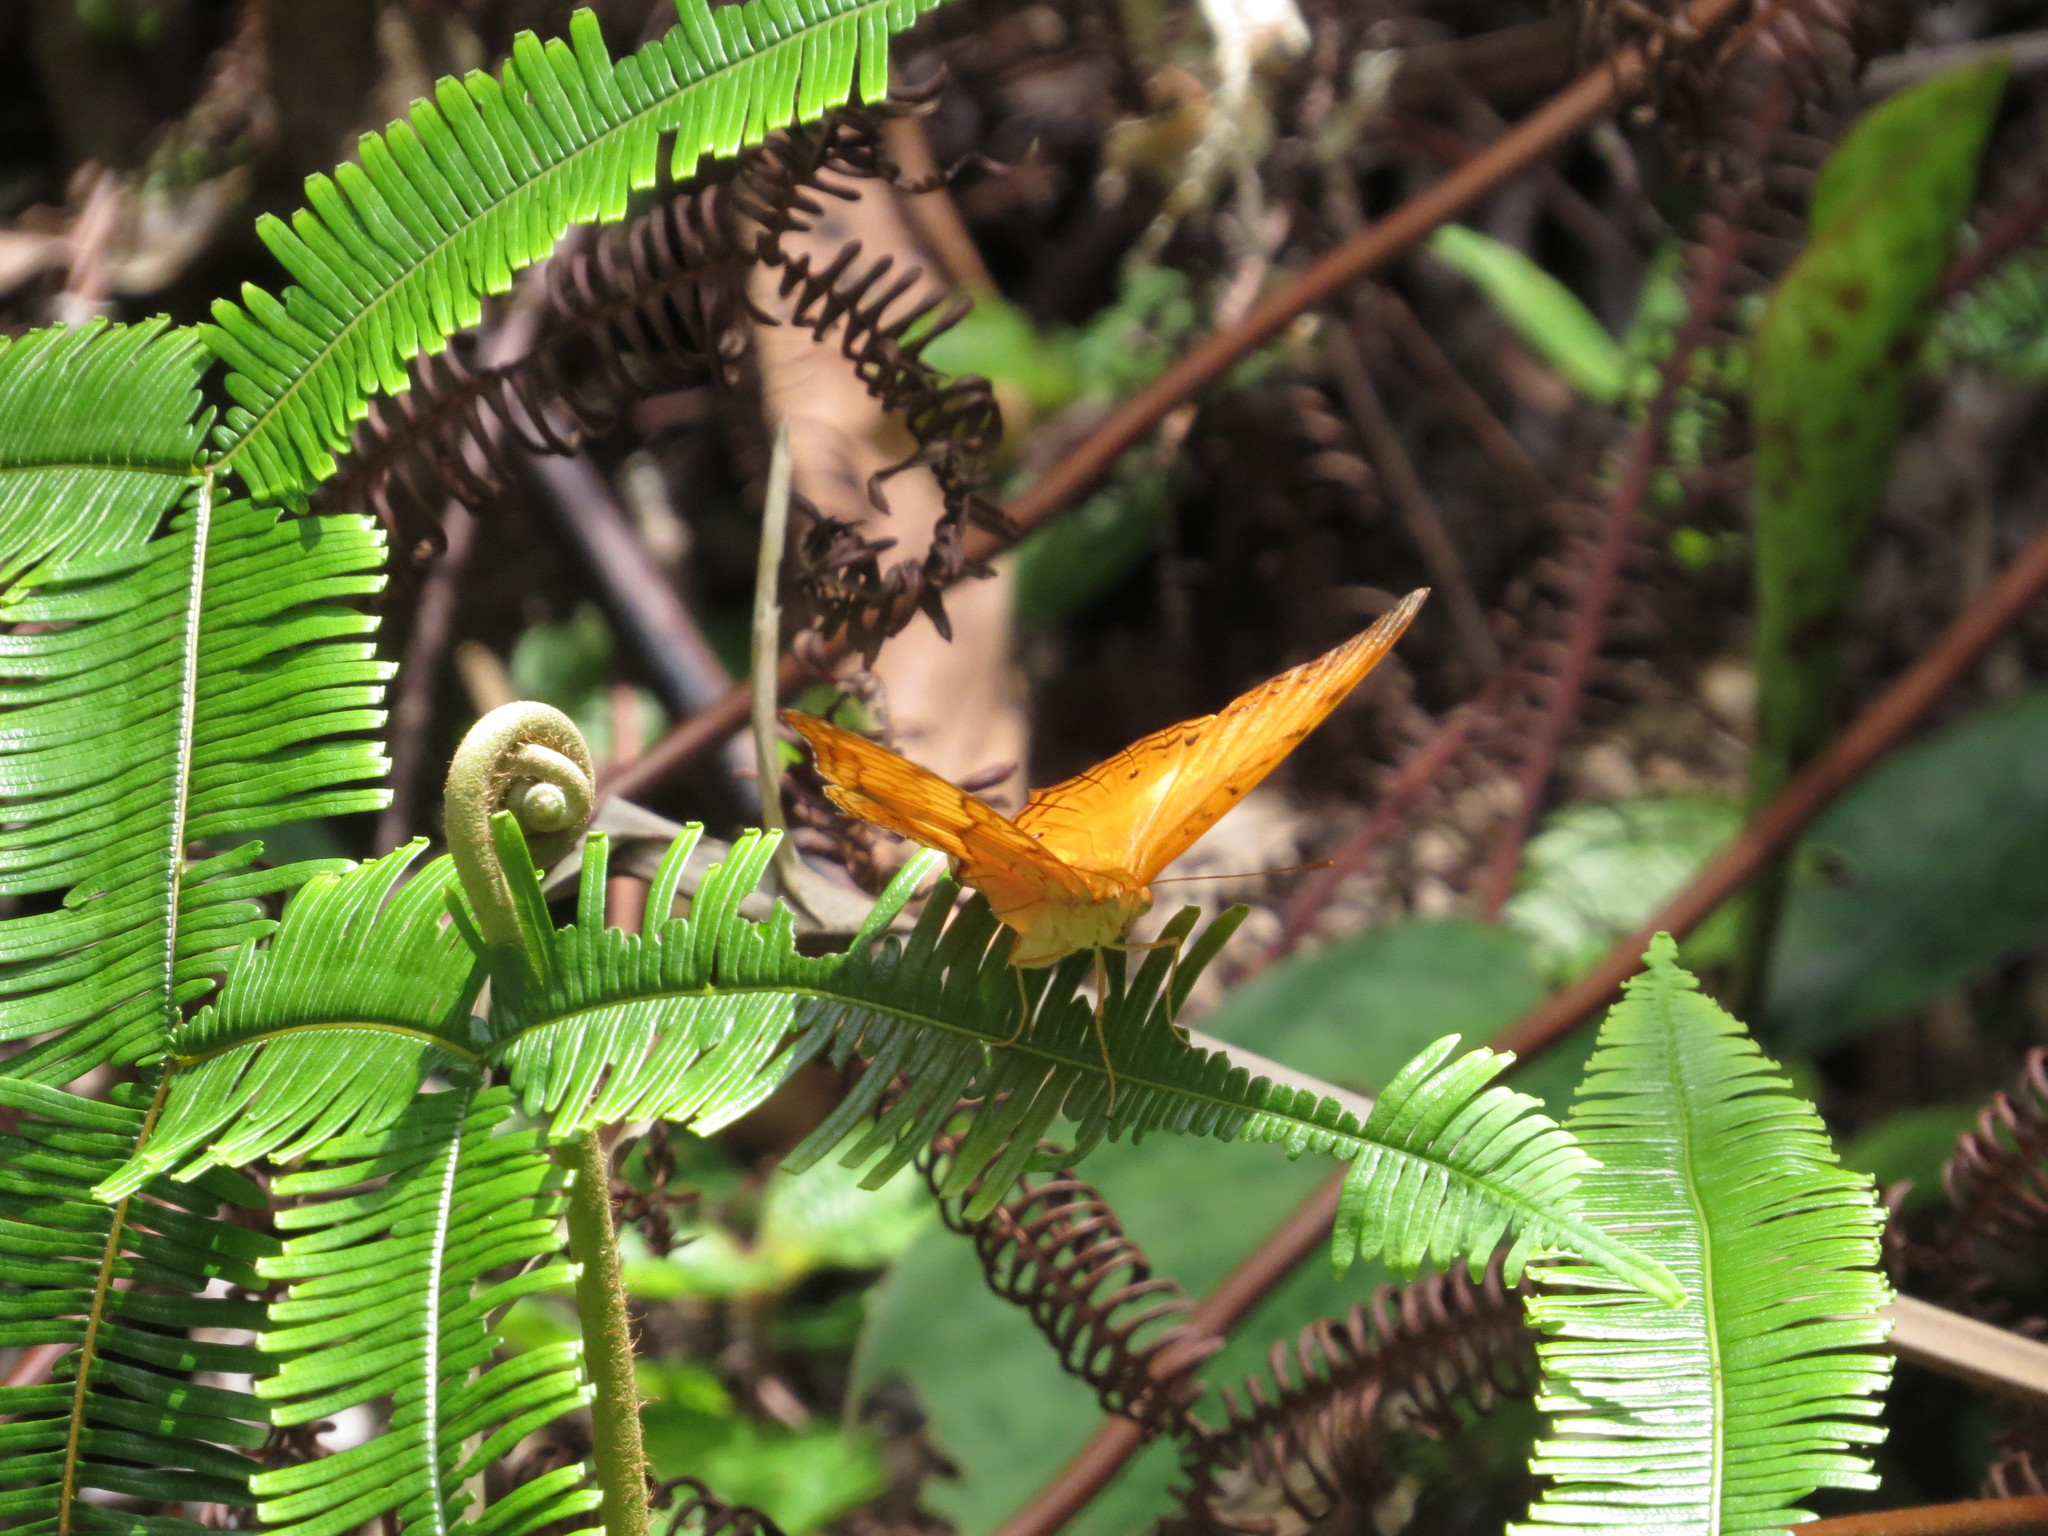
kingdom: Animalia
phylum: Arthropoda
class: Insecta
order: Lepidoptera
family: Nymphalidae
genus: Vindula
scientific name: Vindula deione
